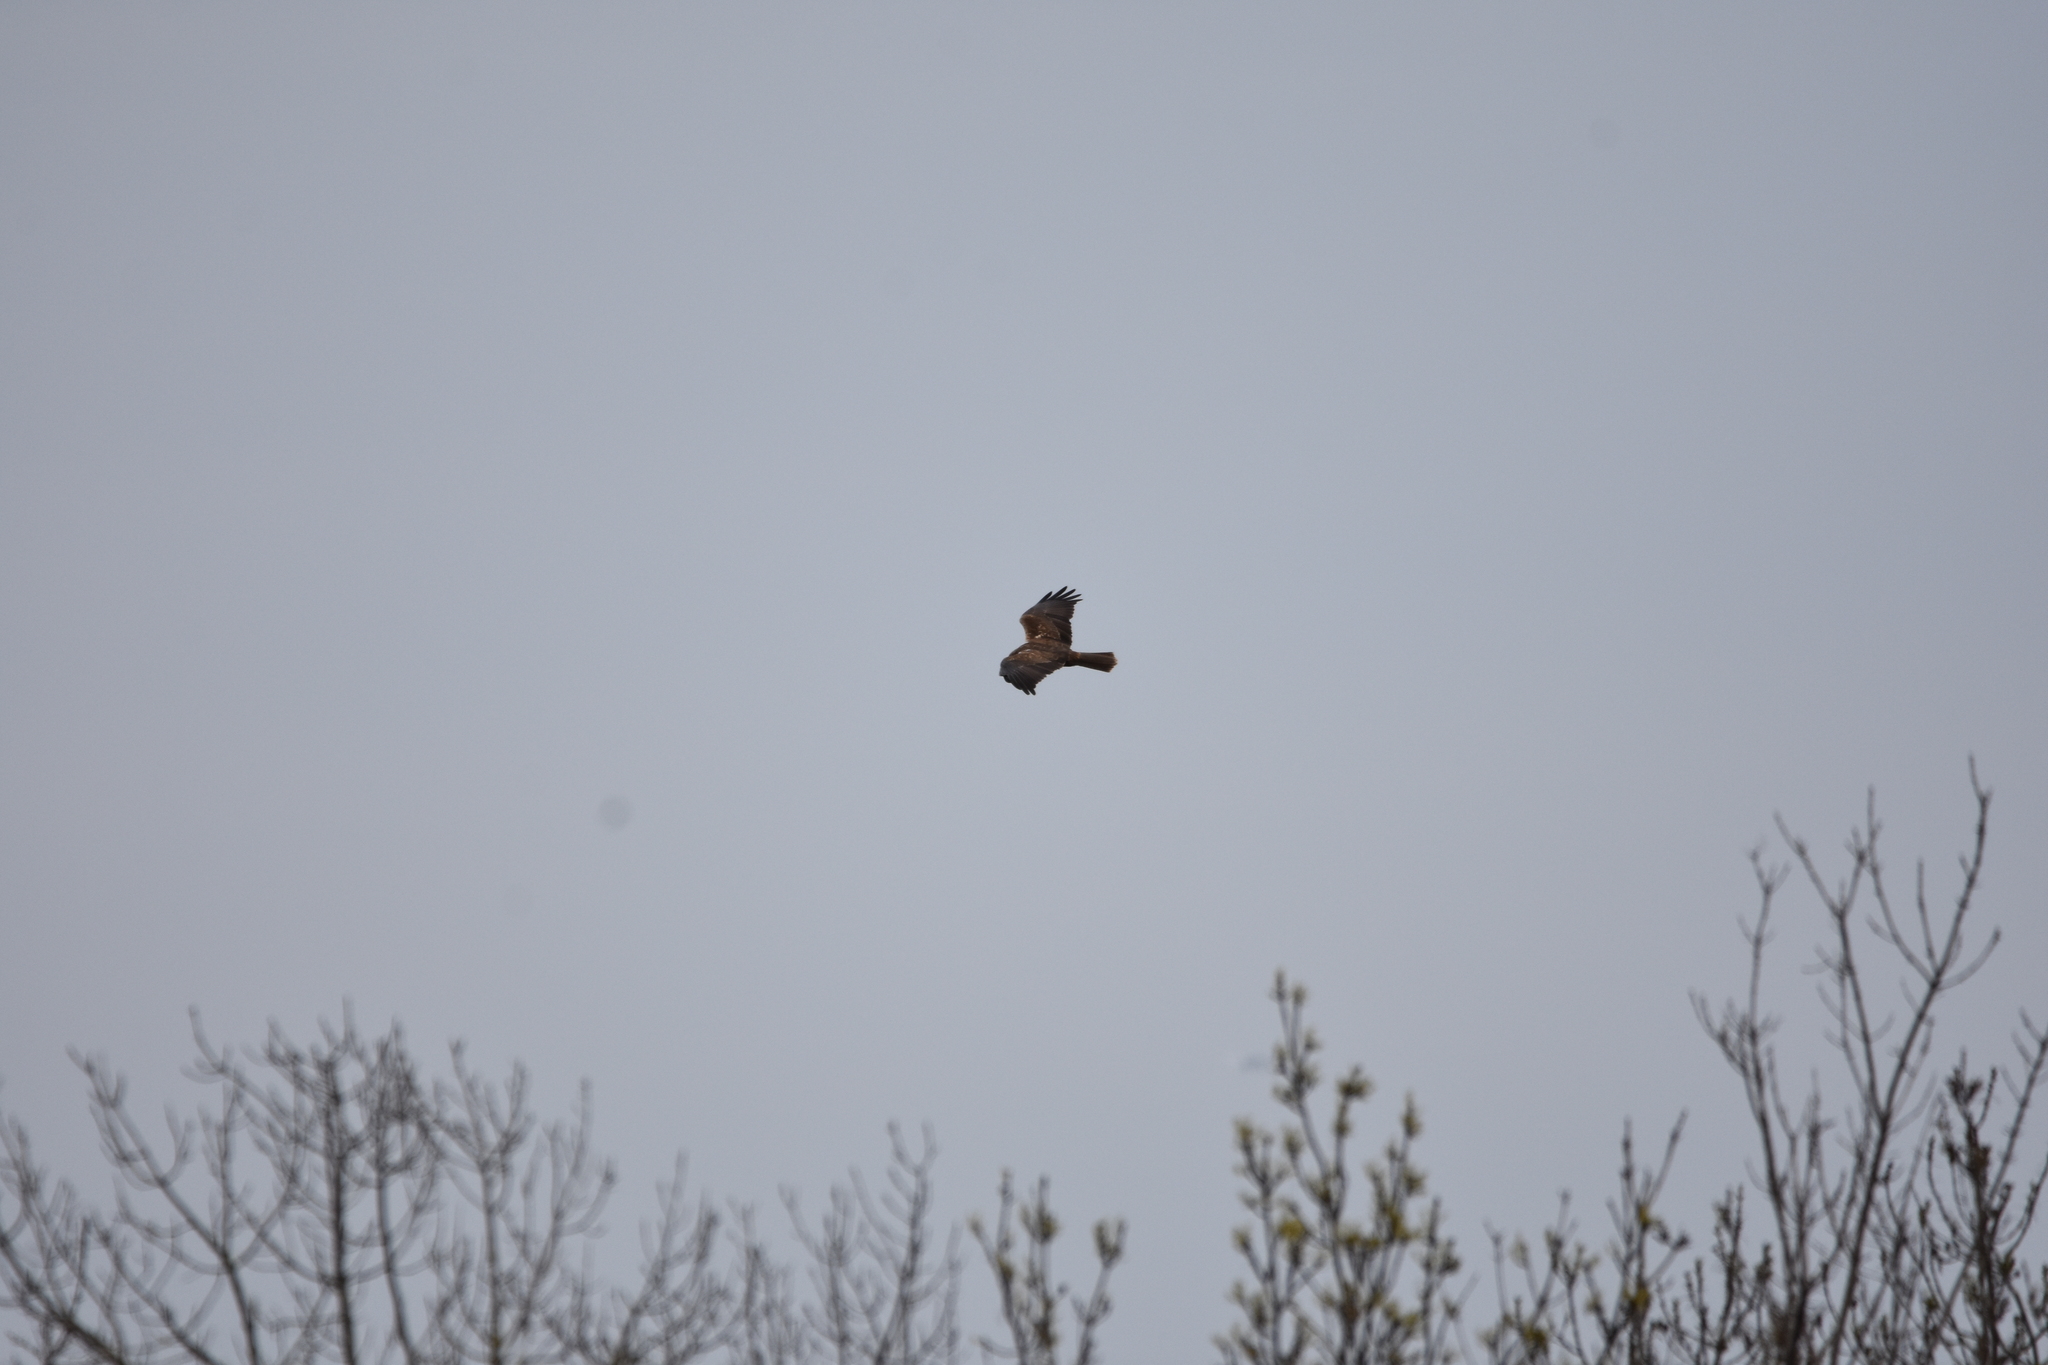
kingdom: Animalia
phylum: Chordata
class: Aves
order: Accipitriformes
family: Accipitridae
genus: Circus
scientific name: Circus aeruginosus
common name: Western marsh harrier
